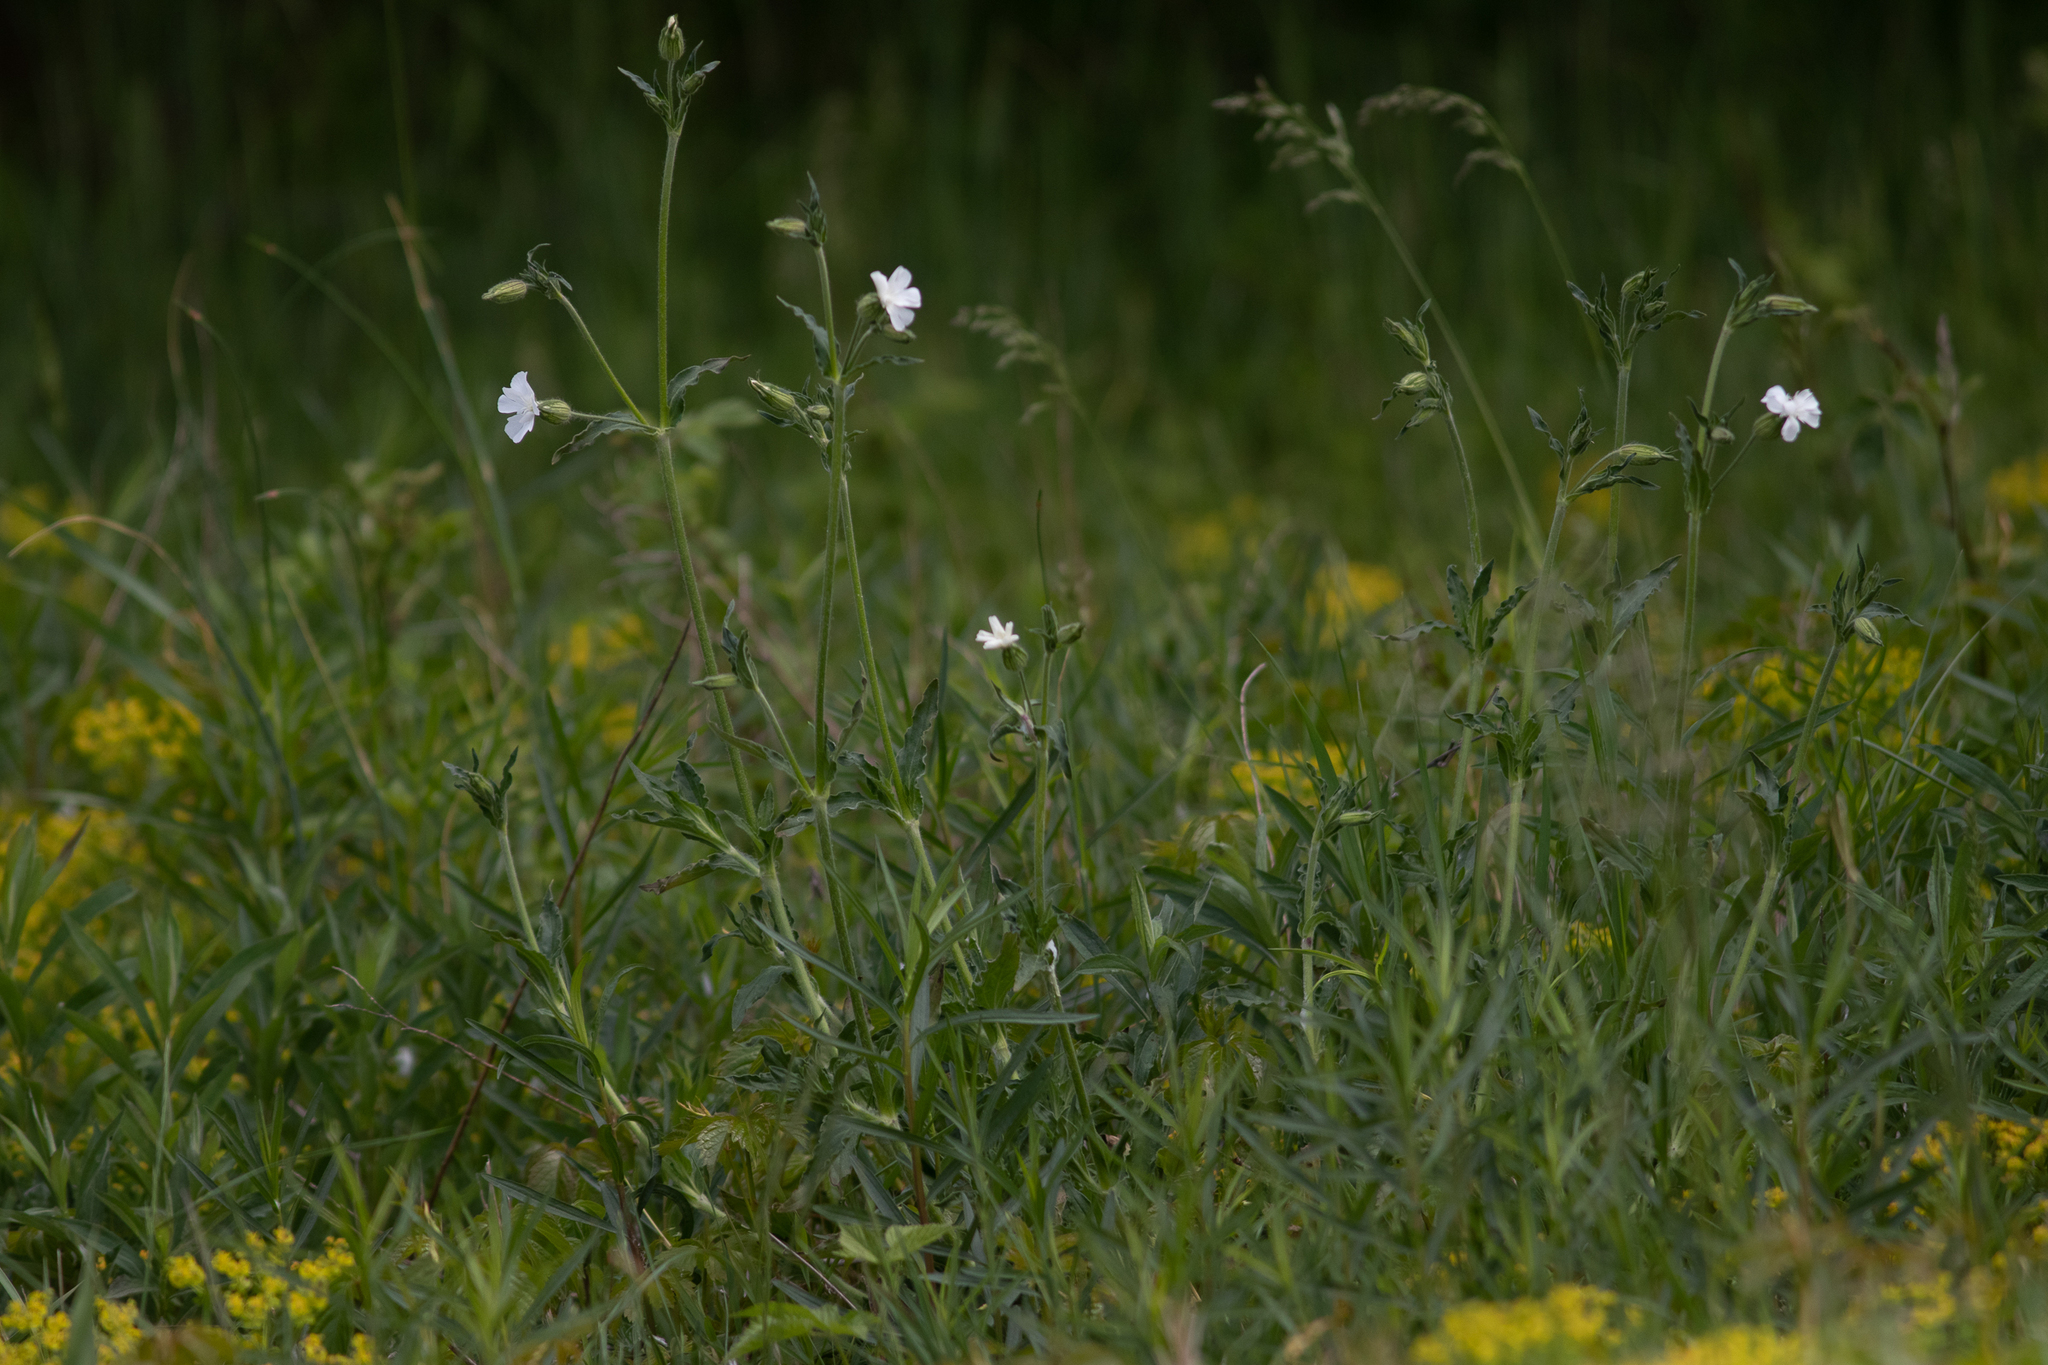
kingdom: Plantae
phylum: Tracheophyta
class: Magnoliopsida
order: Caryophyllales
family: Caryophyllaceae
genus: Silene
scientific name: Silene latifolia
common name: White campion
